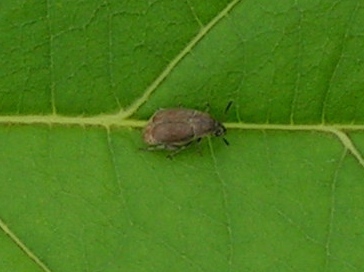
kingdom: Animalia
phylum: Arthropoda
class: Insecta
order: Coleoptera
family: Bruchidae
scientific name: Bruchidae
